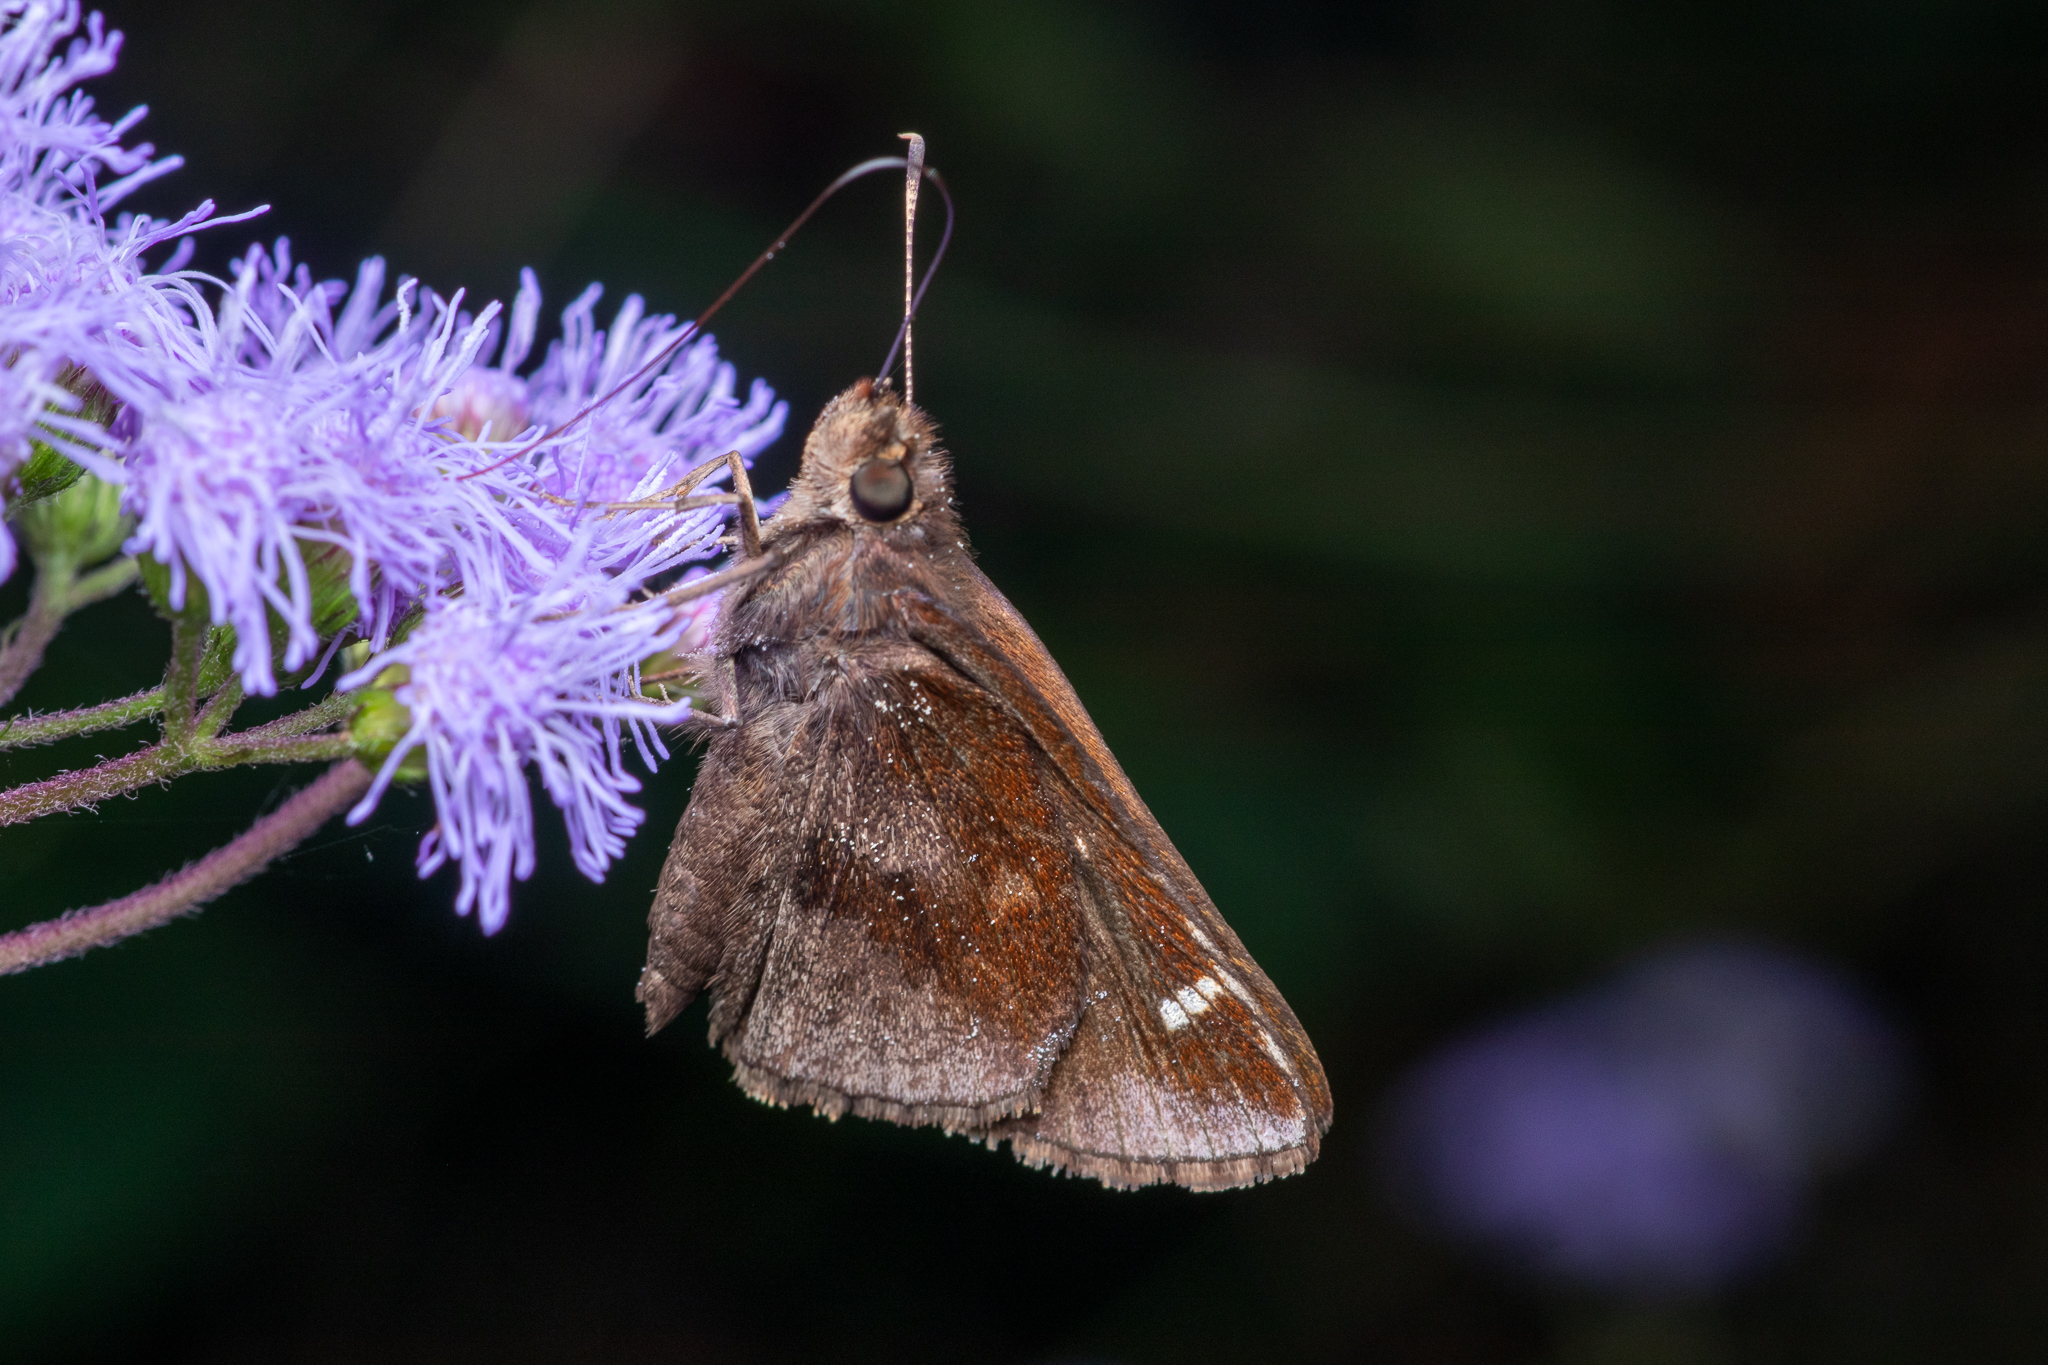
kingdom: Animalia
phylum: Arthropoda
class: Insecta
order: Lepidoptera
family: Hesperiidae
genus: Lerema
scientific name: Lerema accius
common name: Clouded skipper
